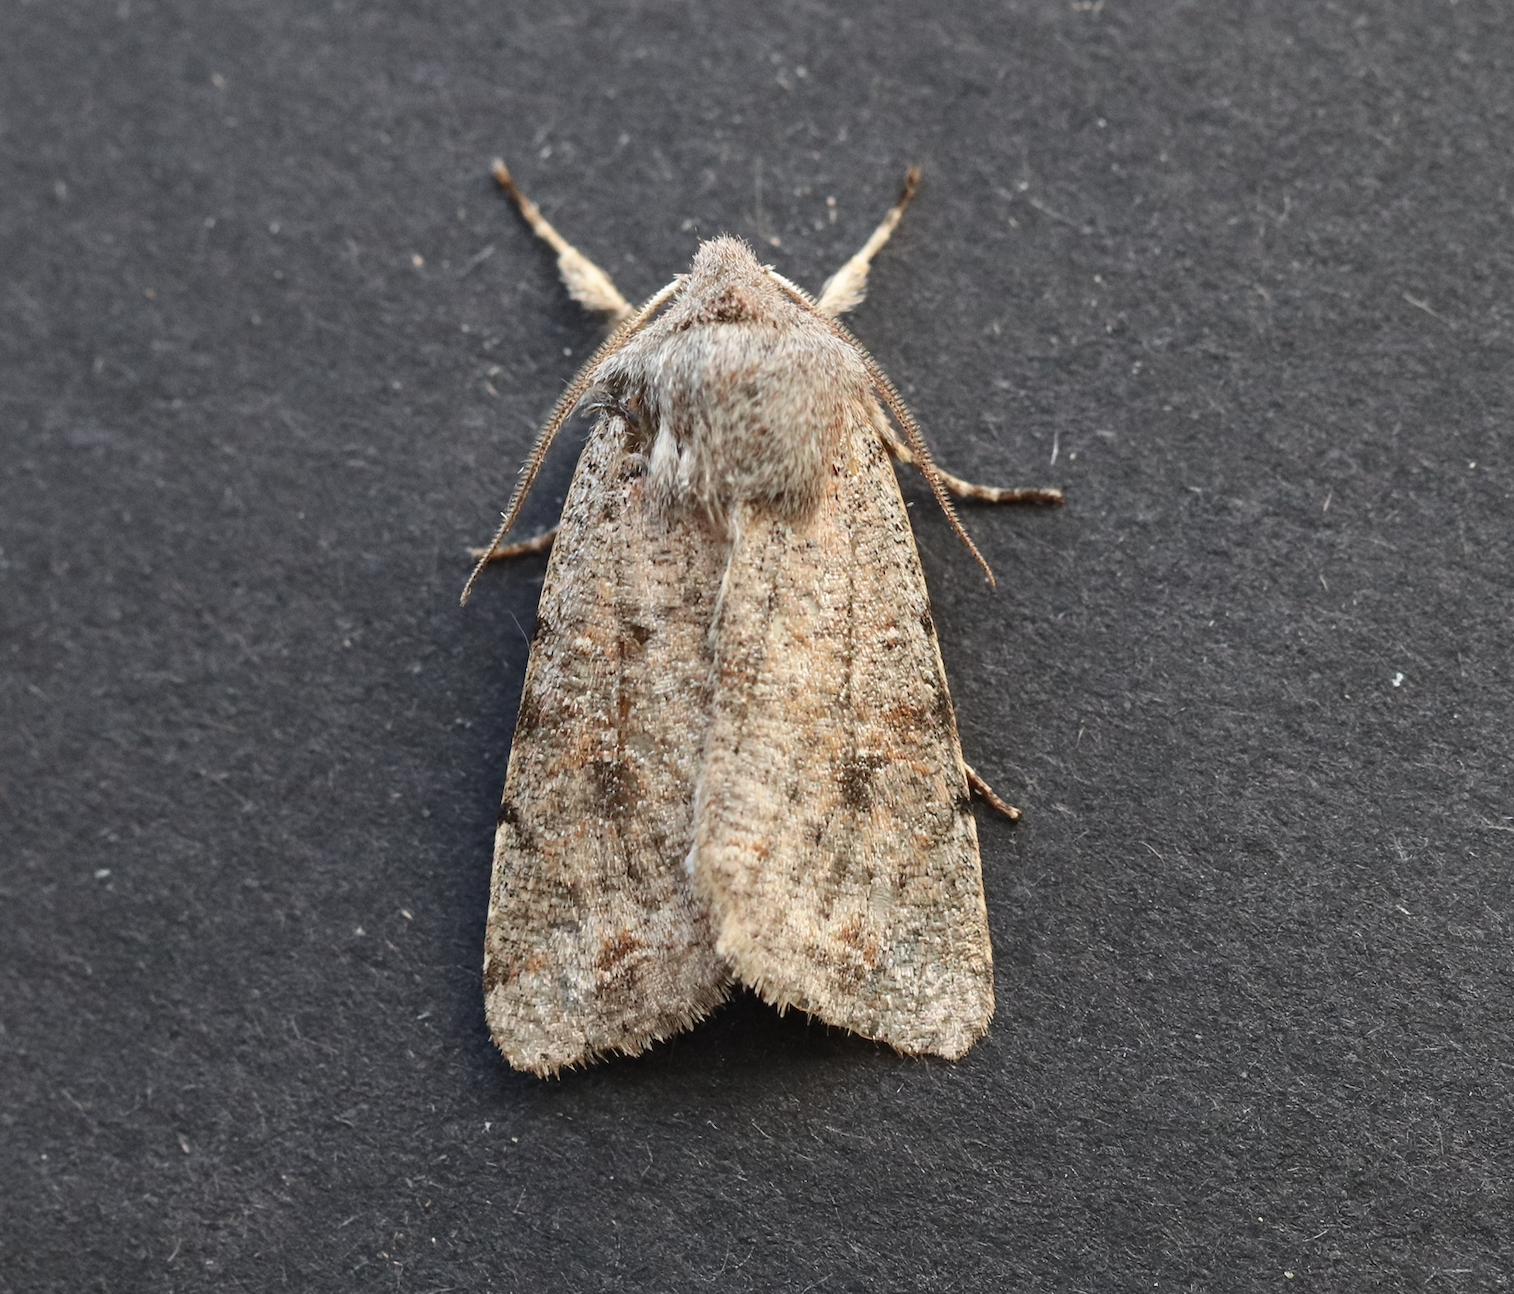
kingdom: Animalia
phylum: Arthropoda
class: Insecta
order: Lepidoptera
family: Noctuidae
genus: Orthosia
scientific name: Orthosia incerta
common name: Clouded drab
